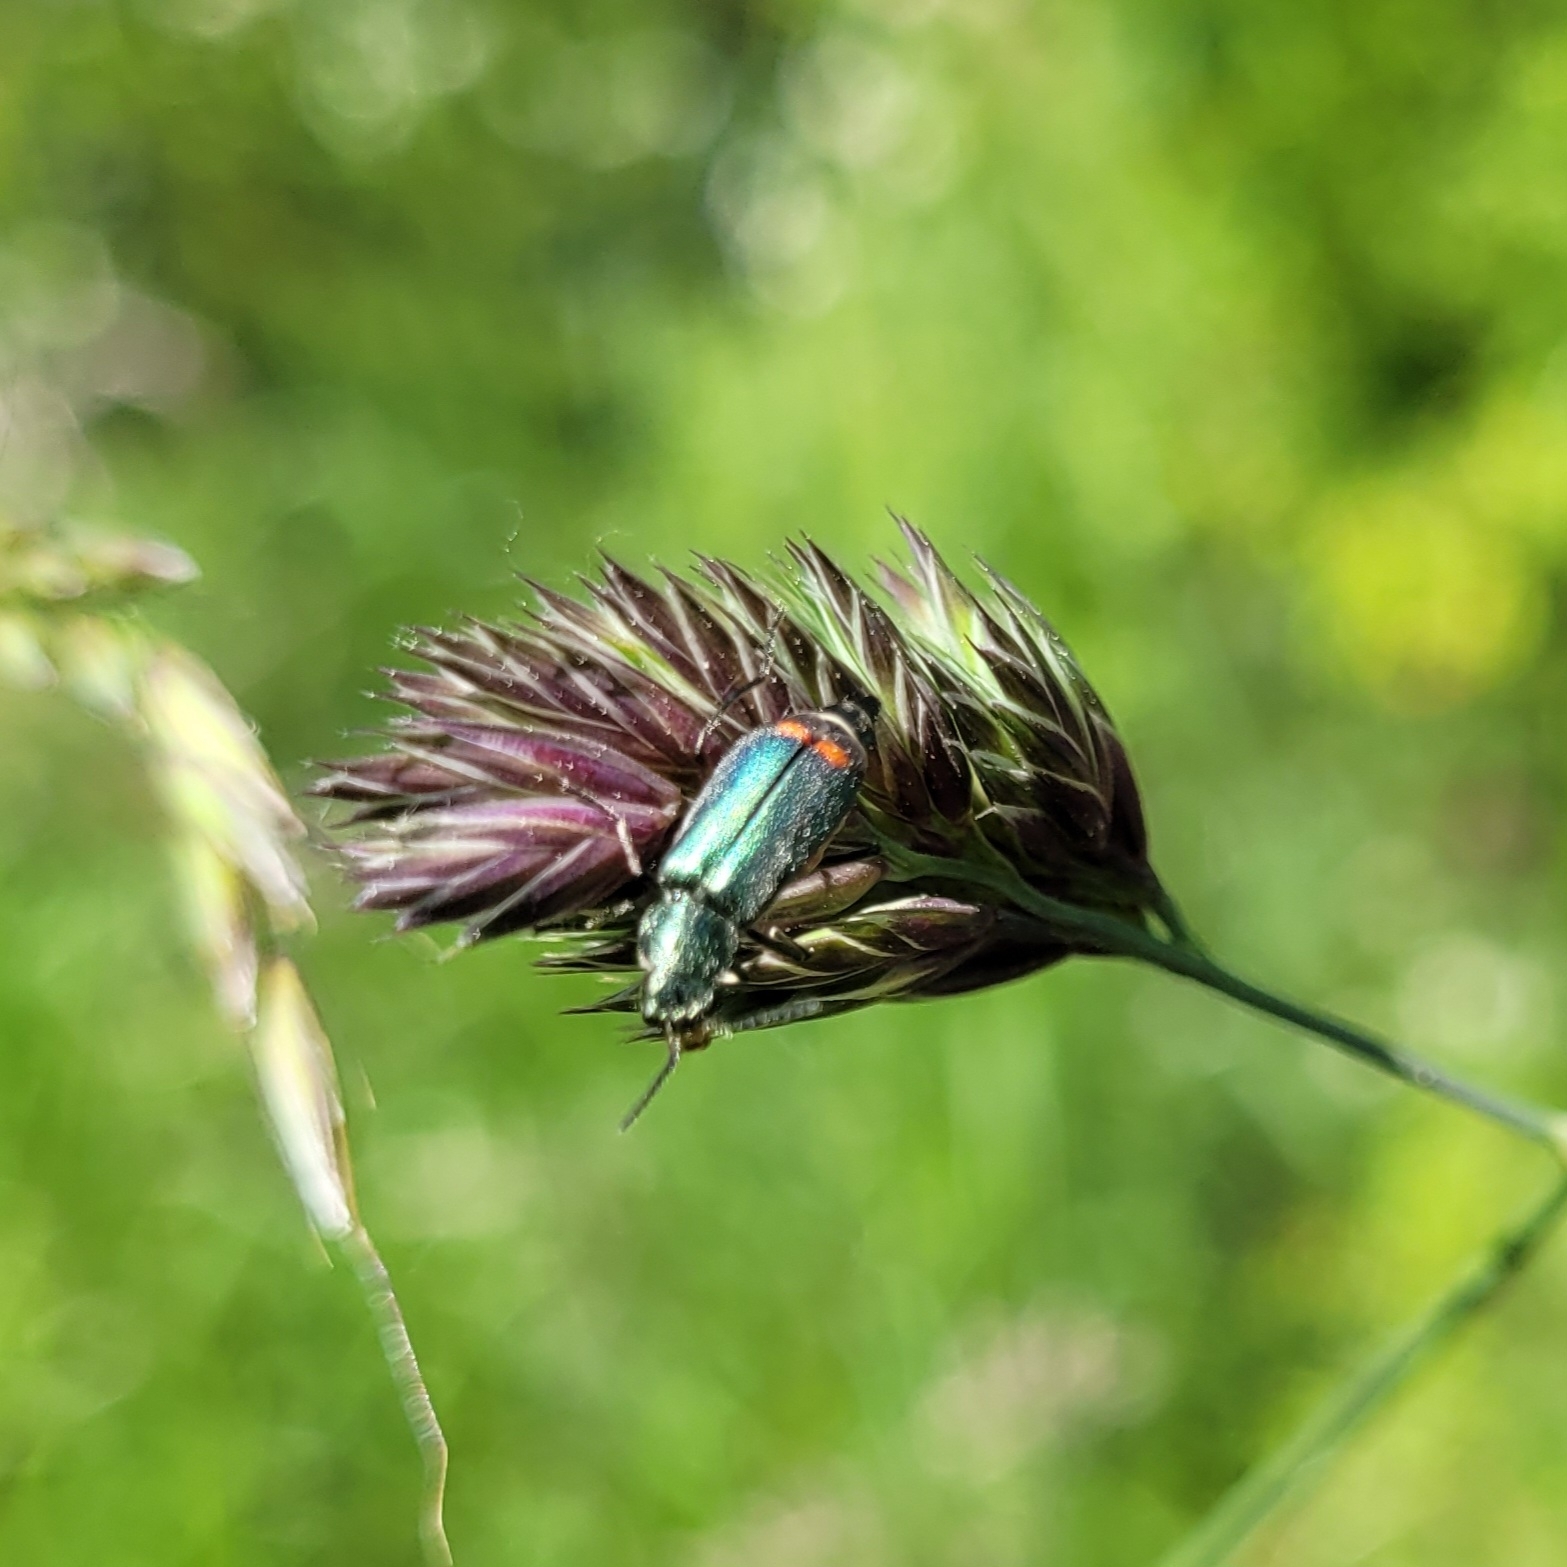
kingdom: Animalia
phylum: Arthropoda
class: Insecta
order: Coleoptera
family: Melyridae
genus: Malachius
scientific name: Malachius bipustulatus
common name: Malachite beetle
